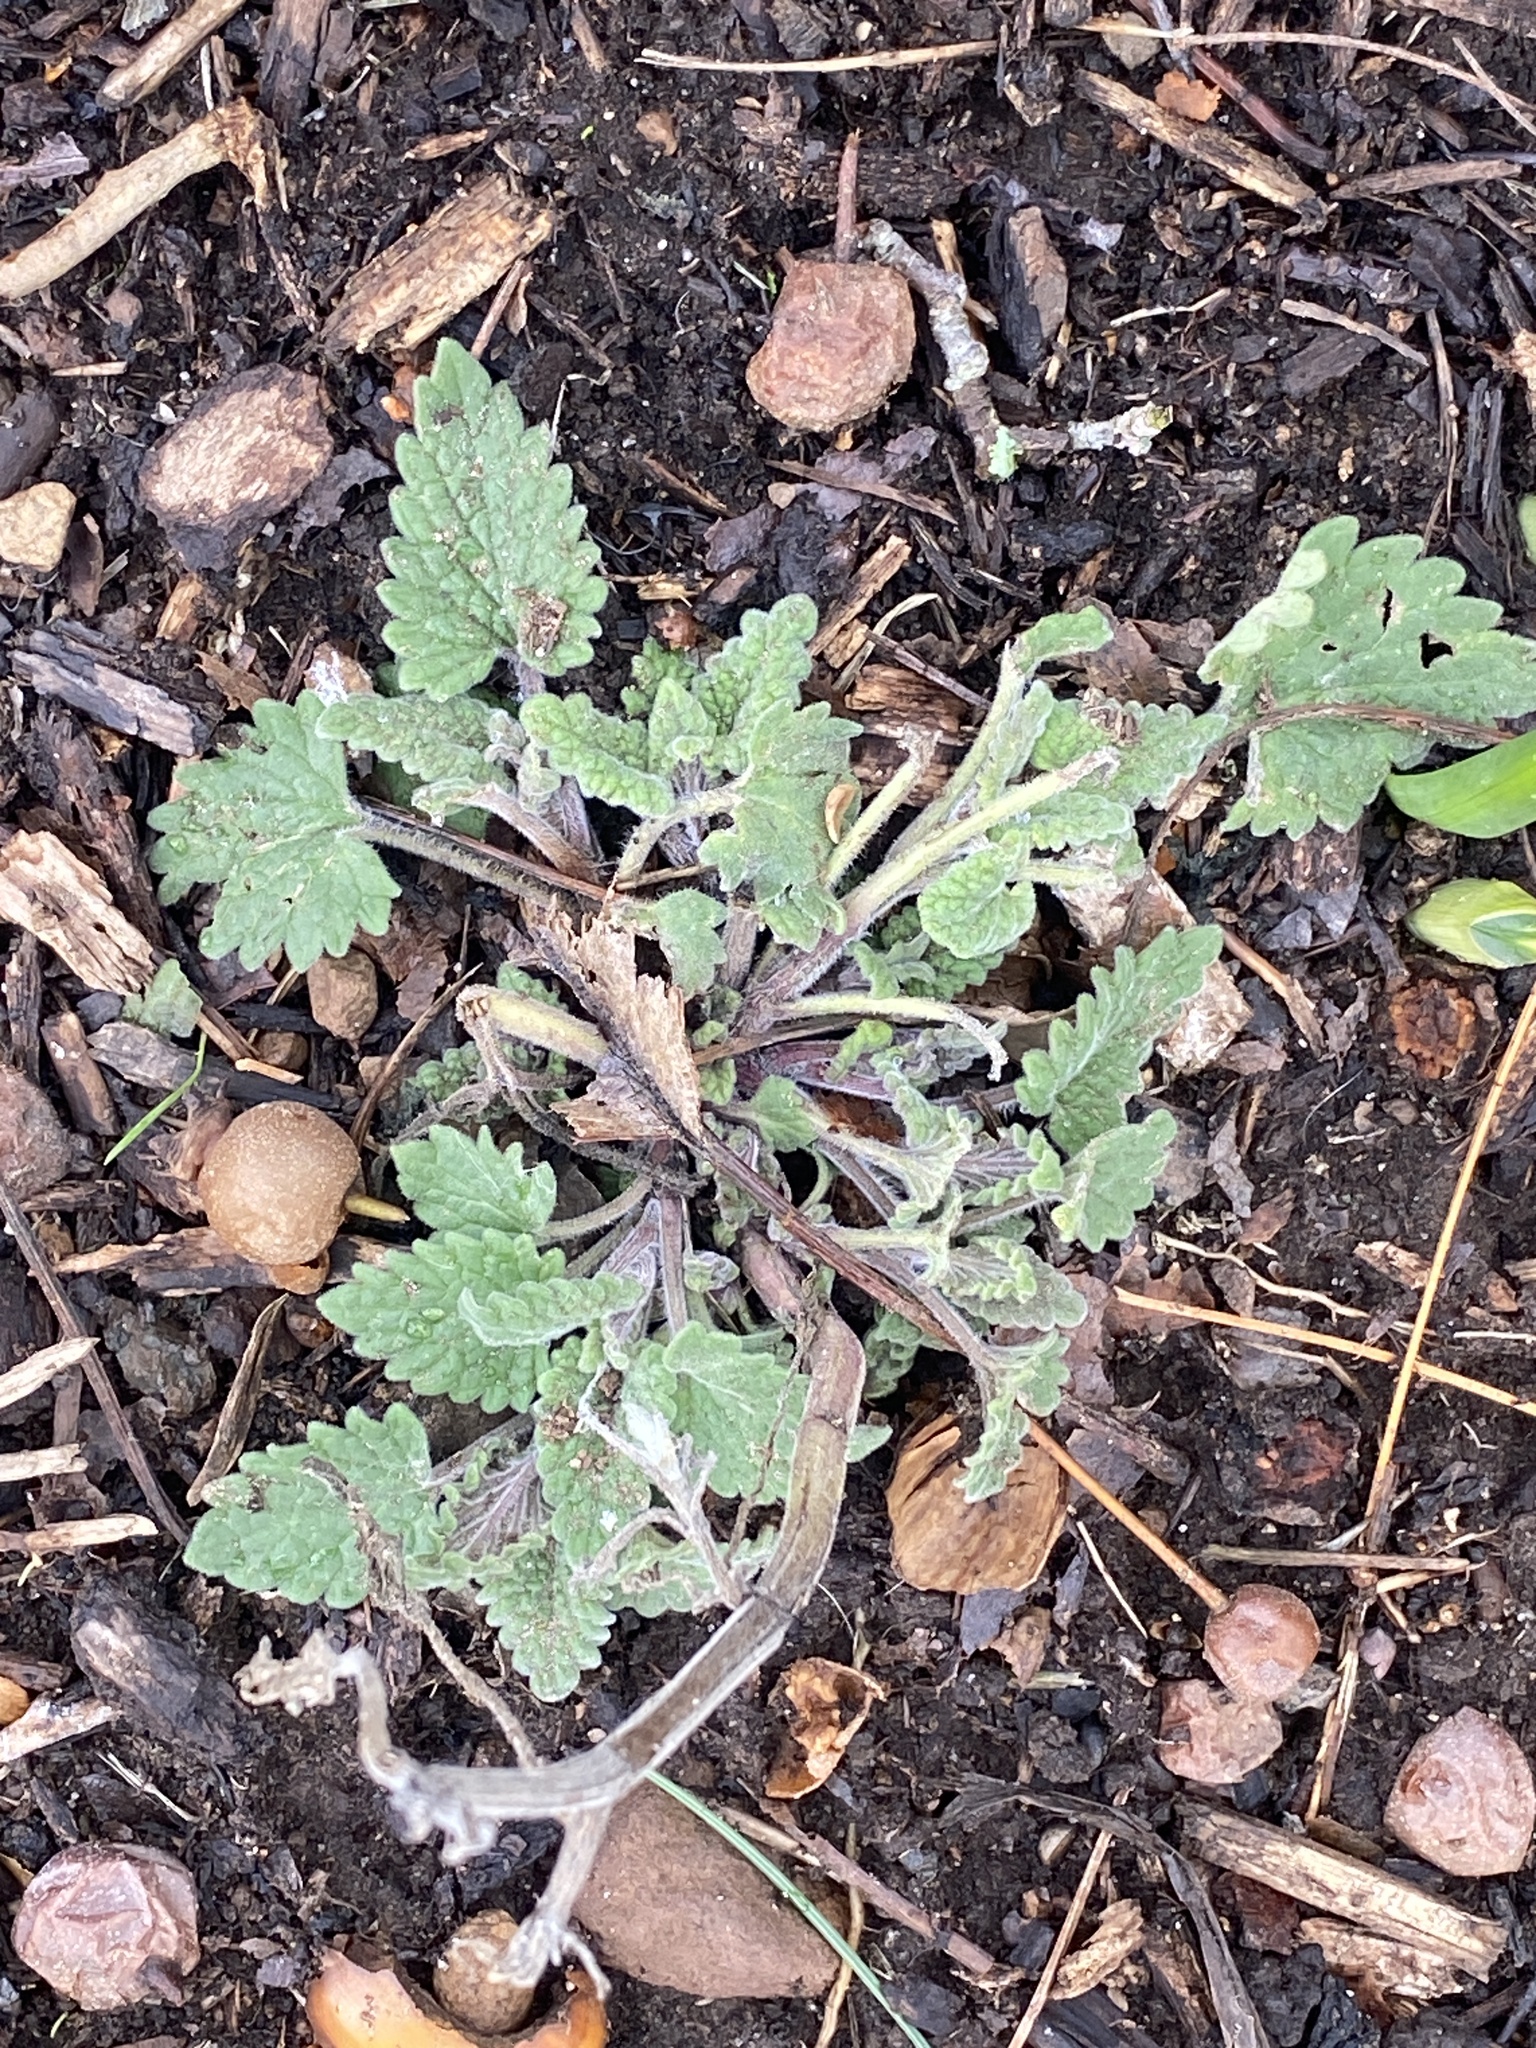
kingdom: Plantae
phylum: Tracheophyta
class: Magnoliopsida
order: Lamiales
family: Lamiaceae
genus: Nepeta
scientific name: Nepeta cataria
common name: Catnip
